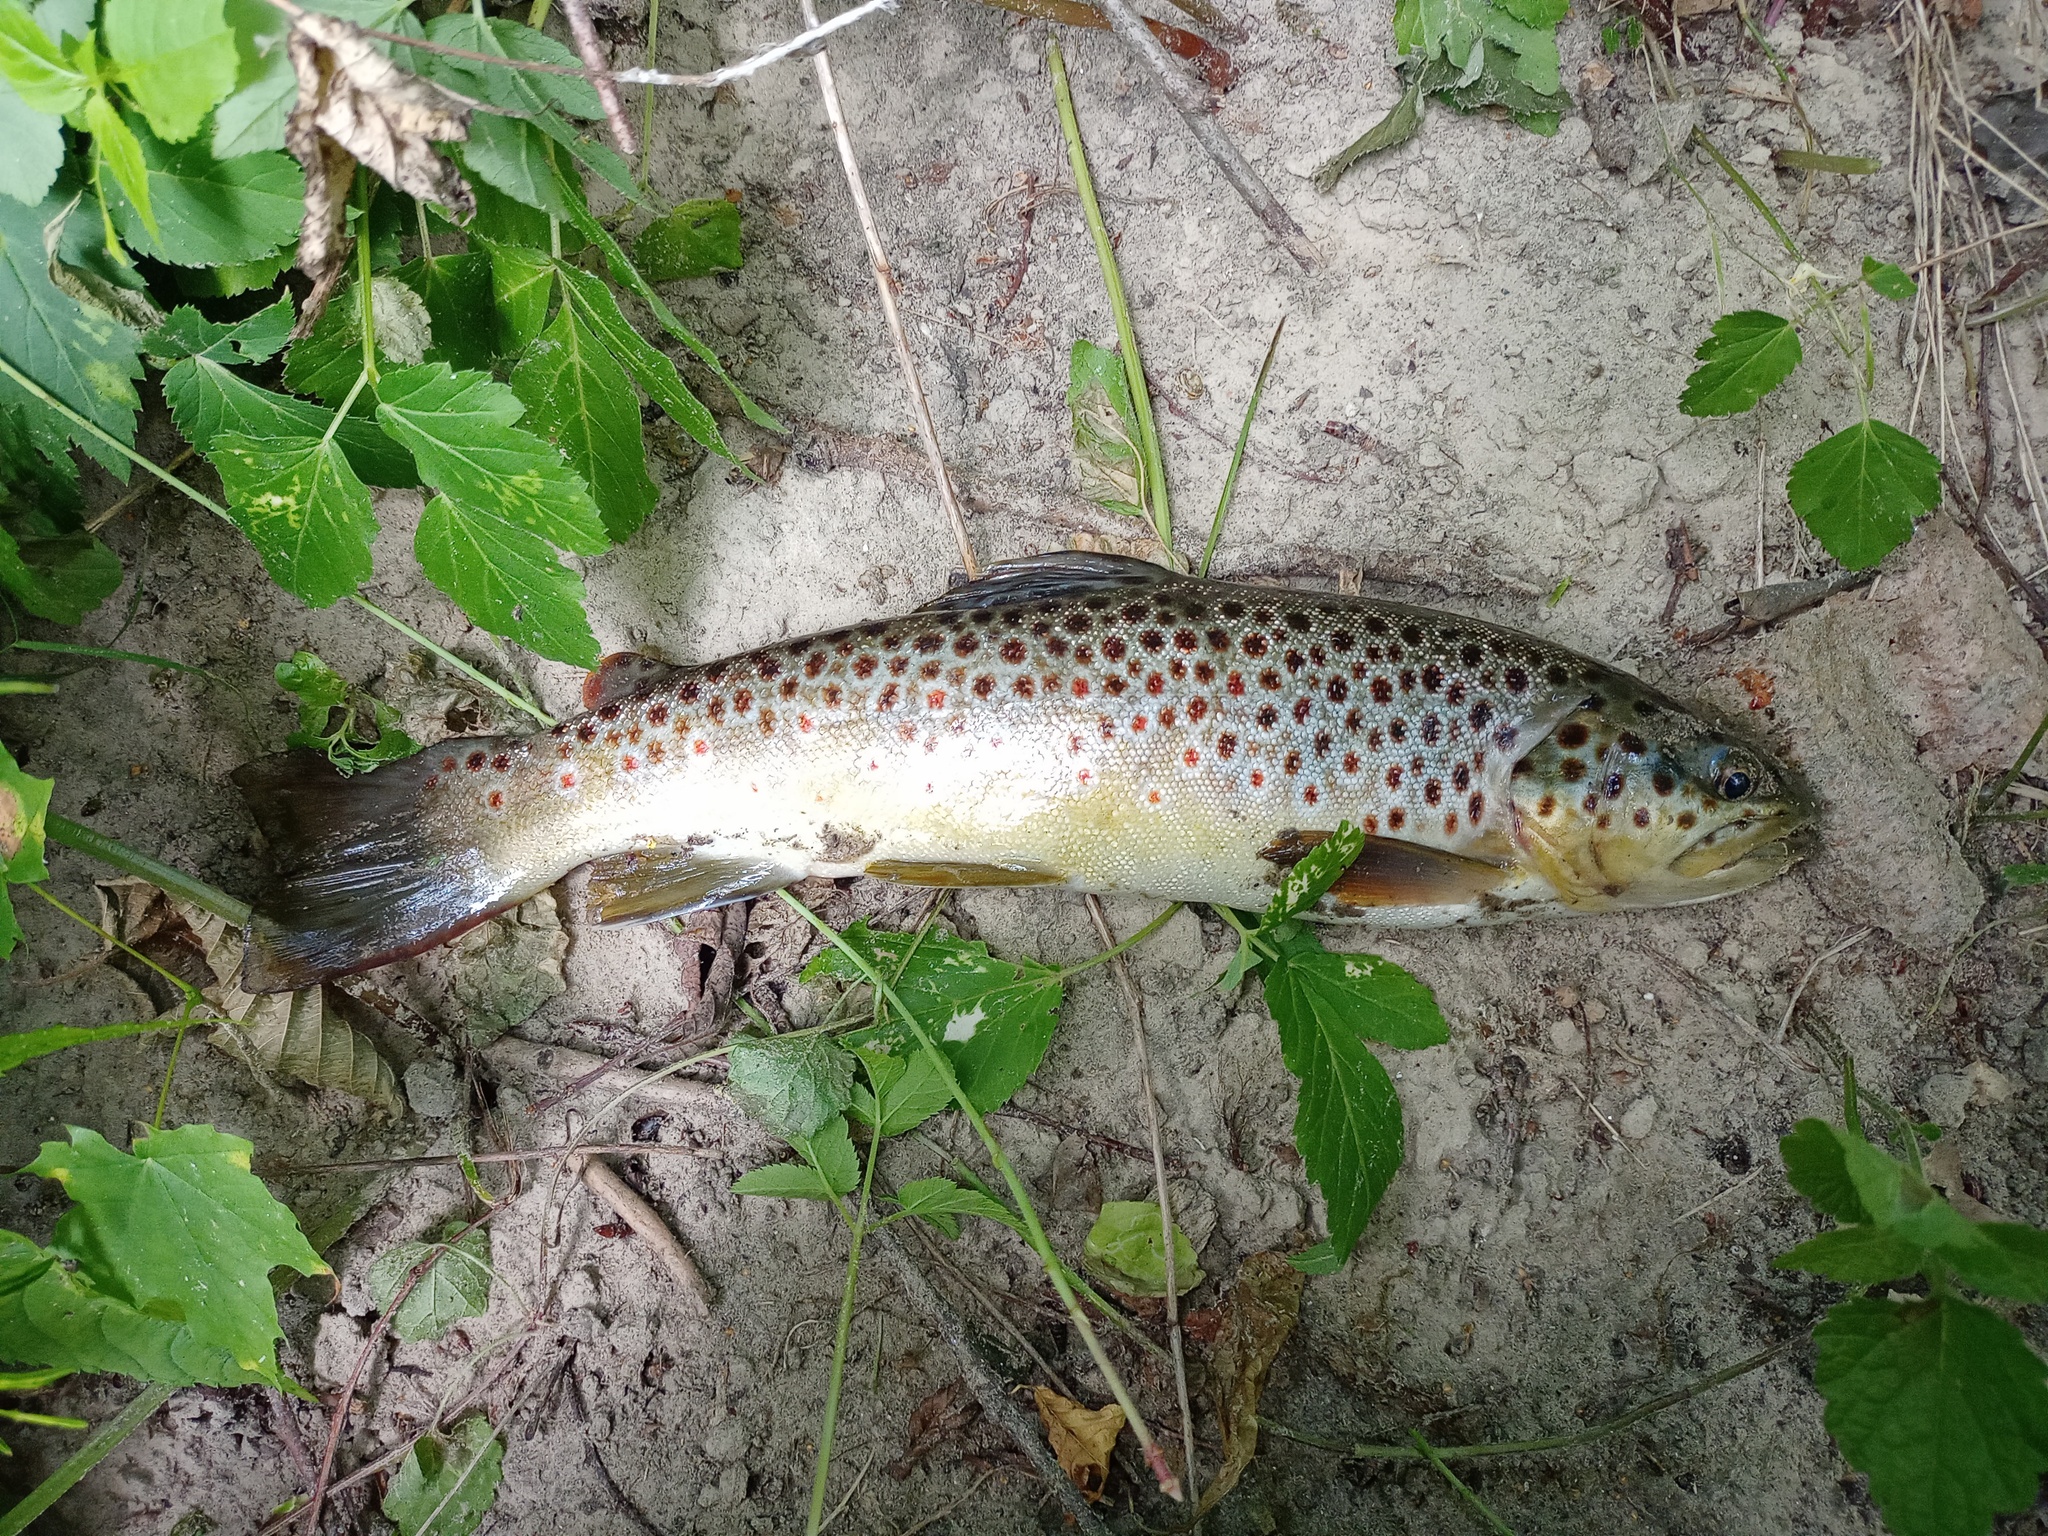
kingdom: Animalia
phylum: Chordata
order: Salmoniformes
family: Salmonidae
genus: Salmo
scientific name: Salmo trutta
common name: Brown trout
